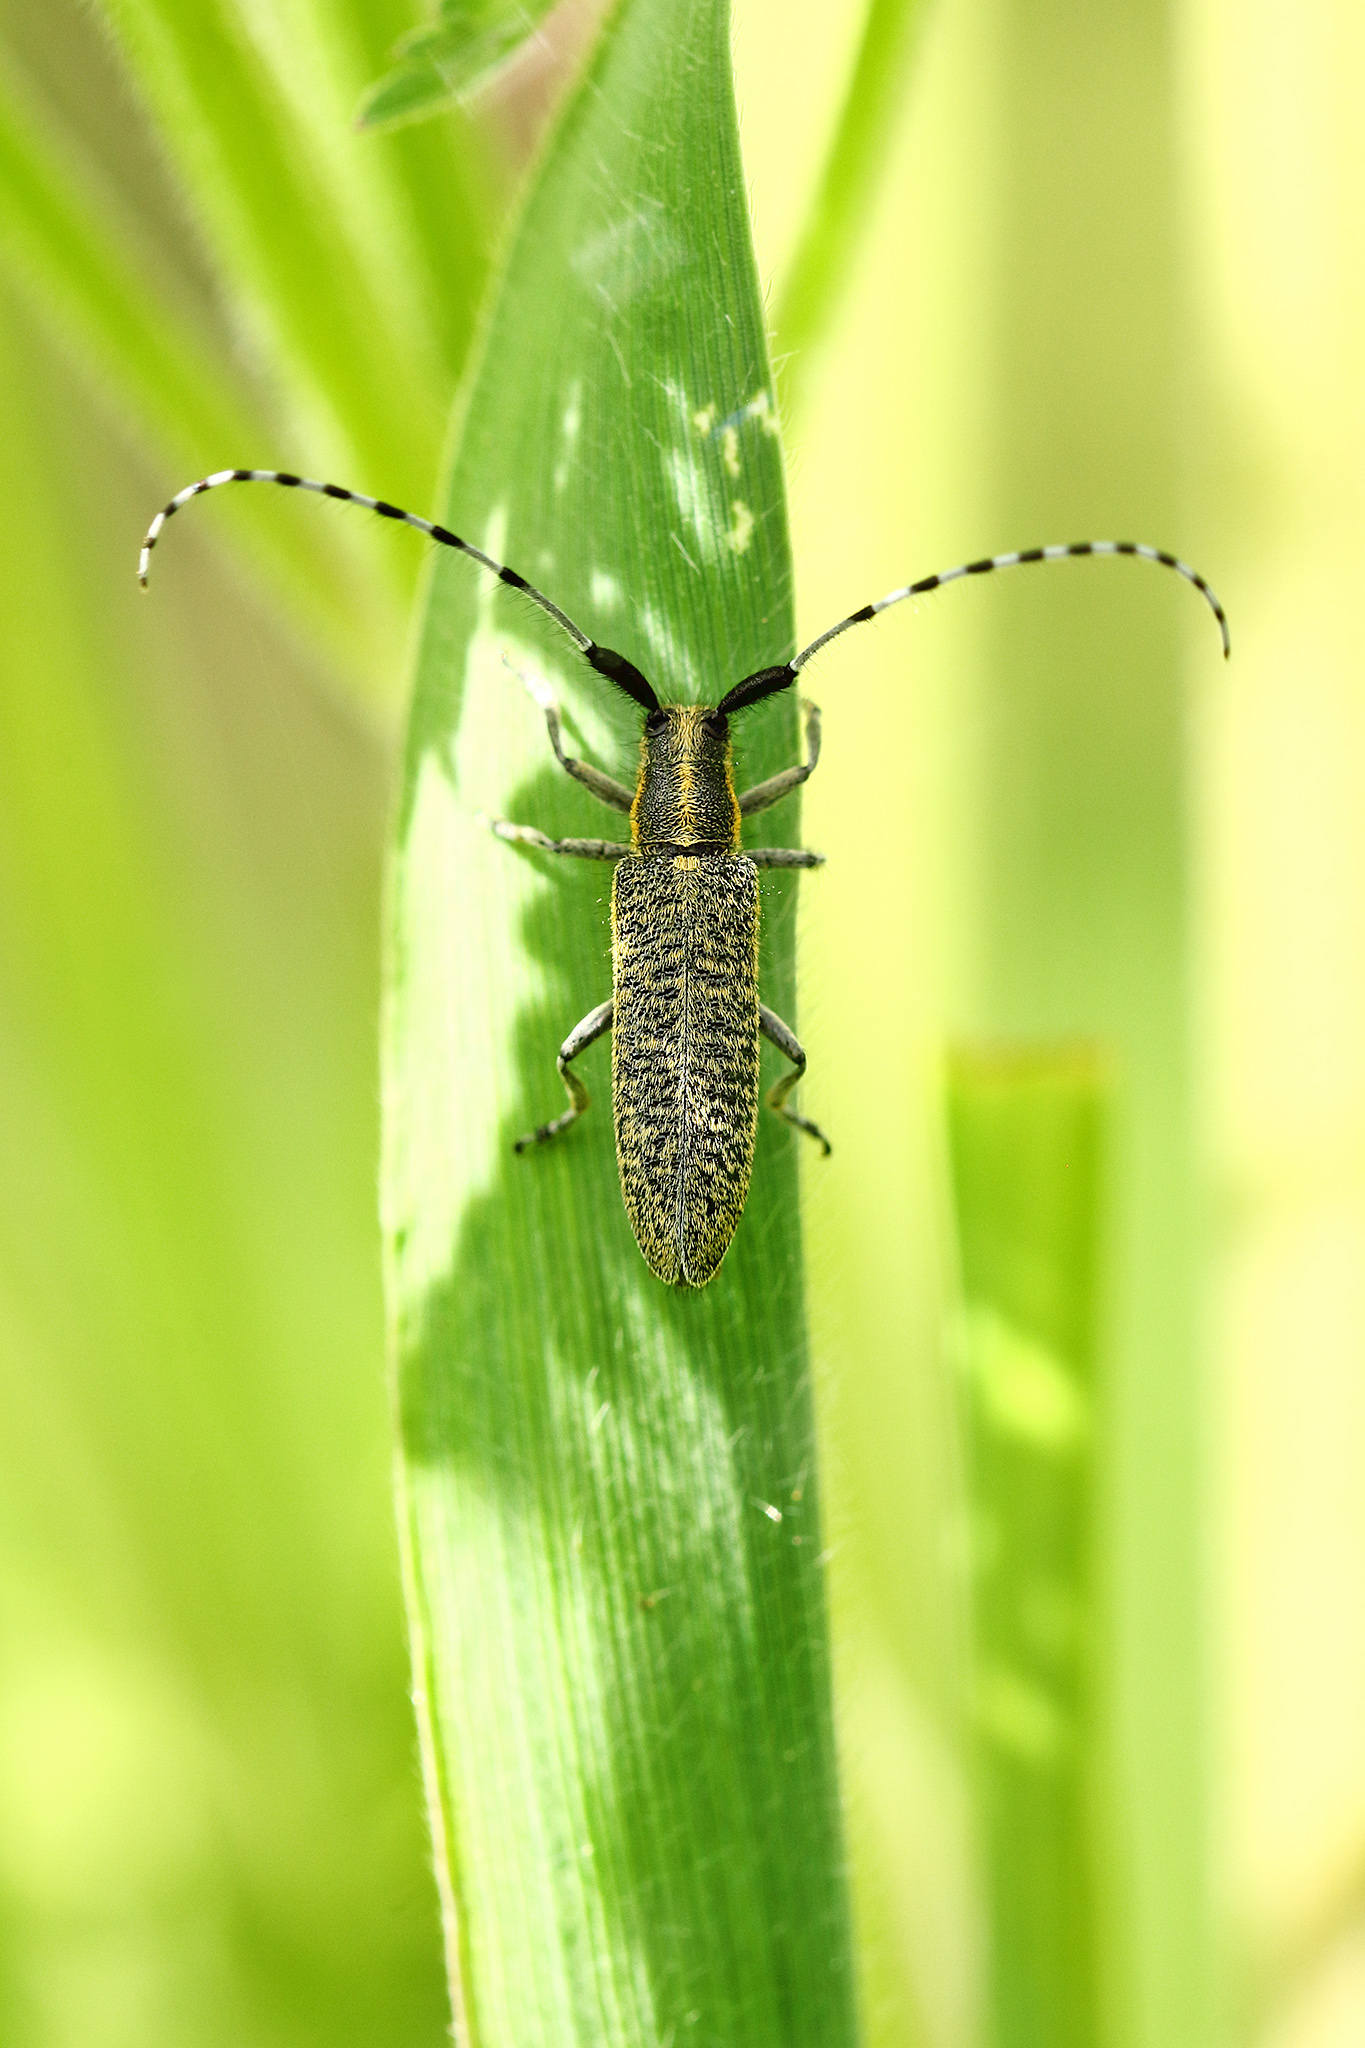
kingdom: Animalia
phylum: Arthropoda
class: Insecta
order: Coleoptera
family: Cerambycidae
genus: Agapanthia
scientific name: Agapanthia villosoviridescens
